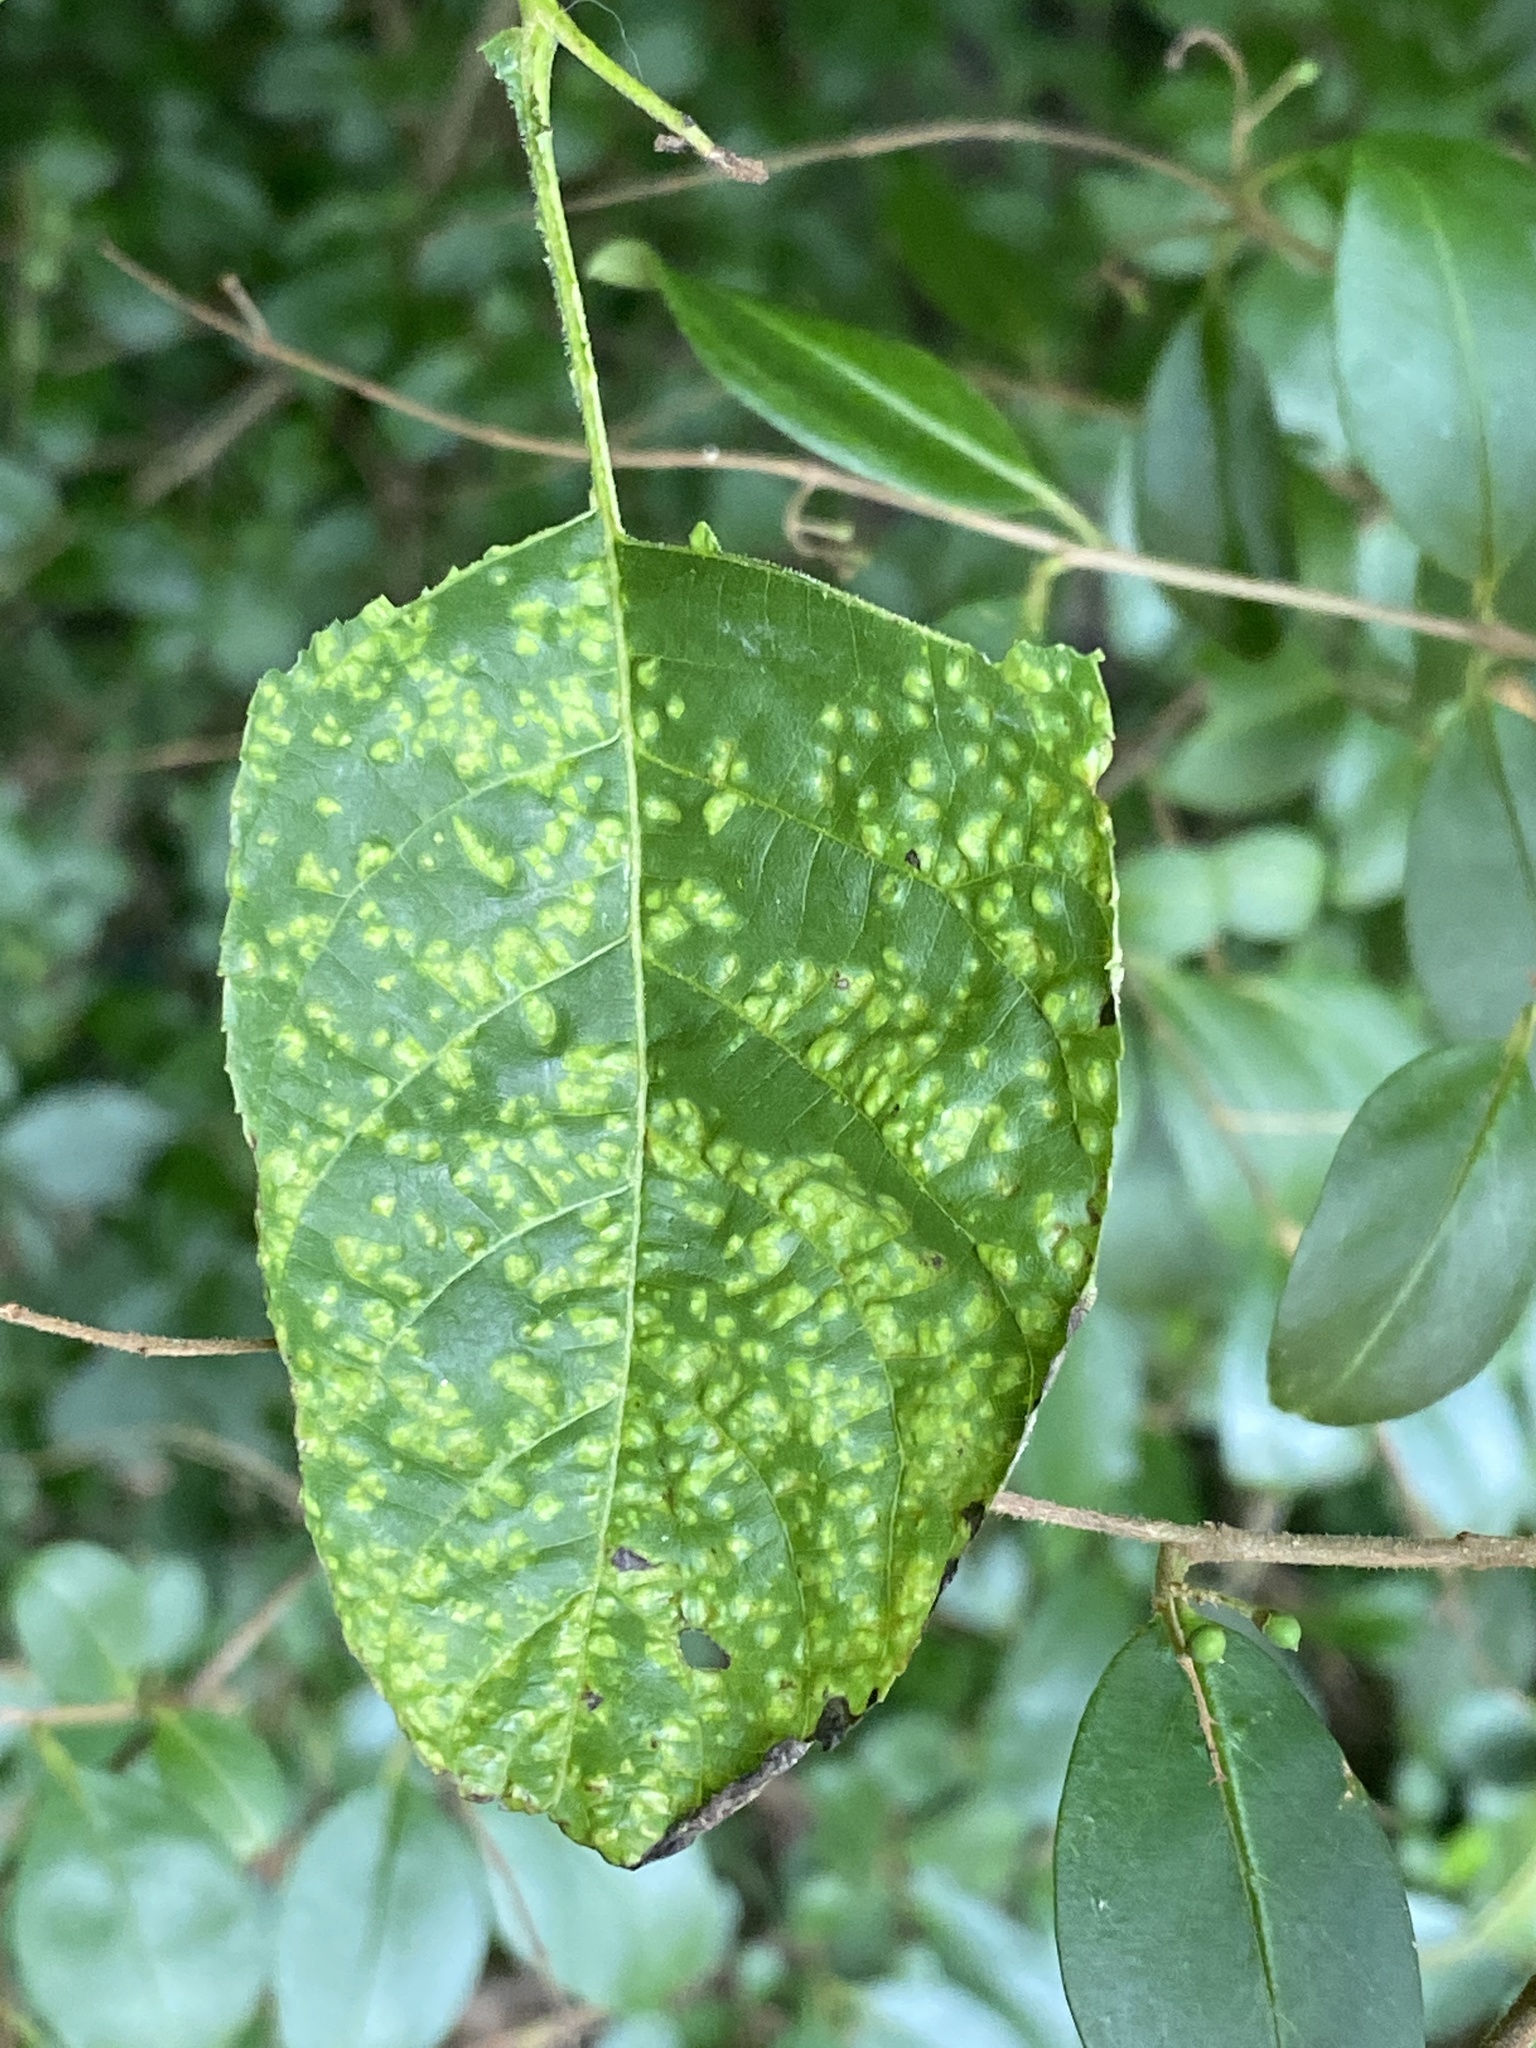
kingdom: Fungi
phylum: Basidiomycota
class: Exobasidiomycetes
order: Microstromatales
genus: Pseudomicrostroma
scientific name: Pseudomicrostroma juglandis
